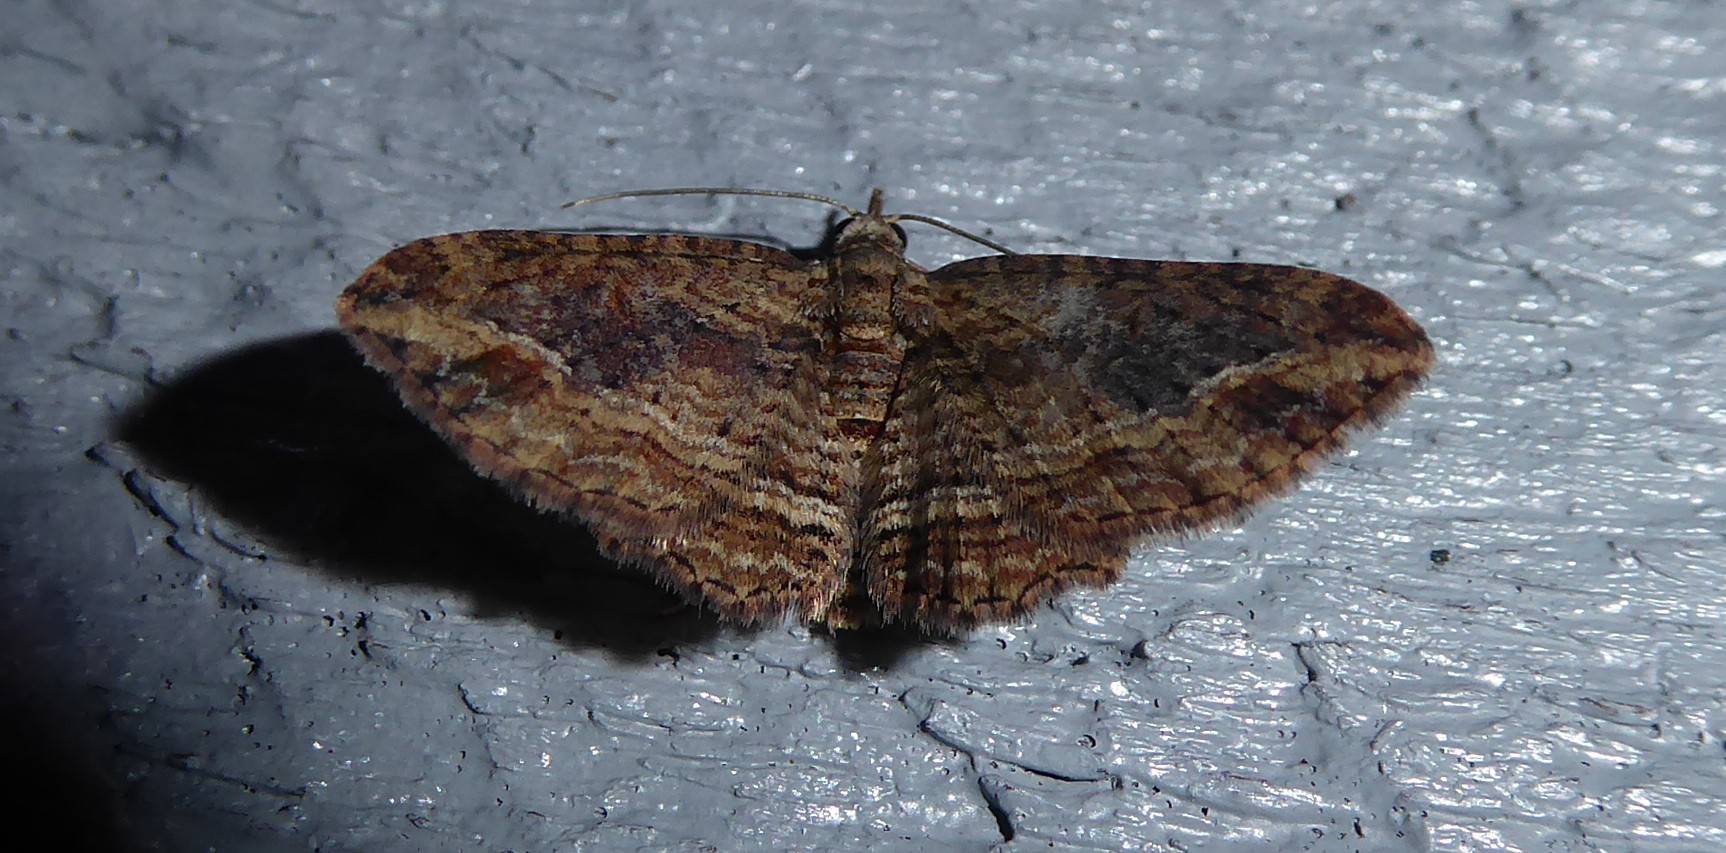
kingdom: Animalia
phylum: Arthropoda
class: Insecta
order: Lepidoptera
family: Geometridae
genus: Chloroclystis
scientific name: Chloroclystis filata
